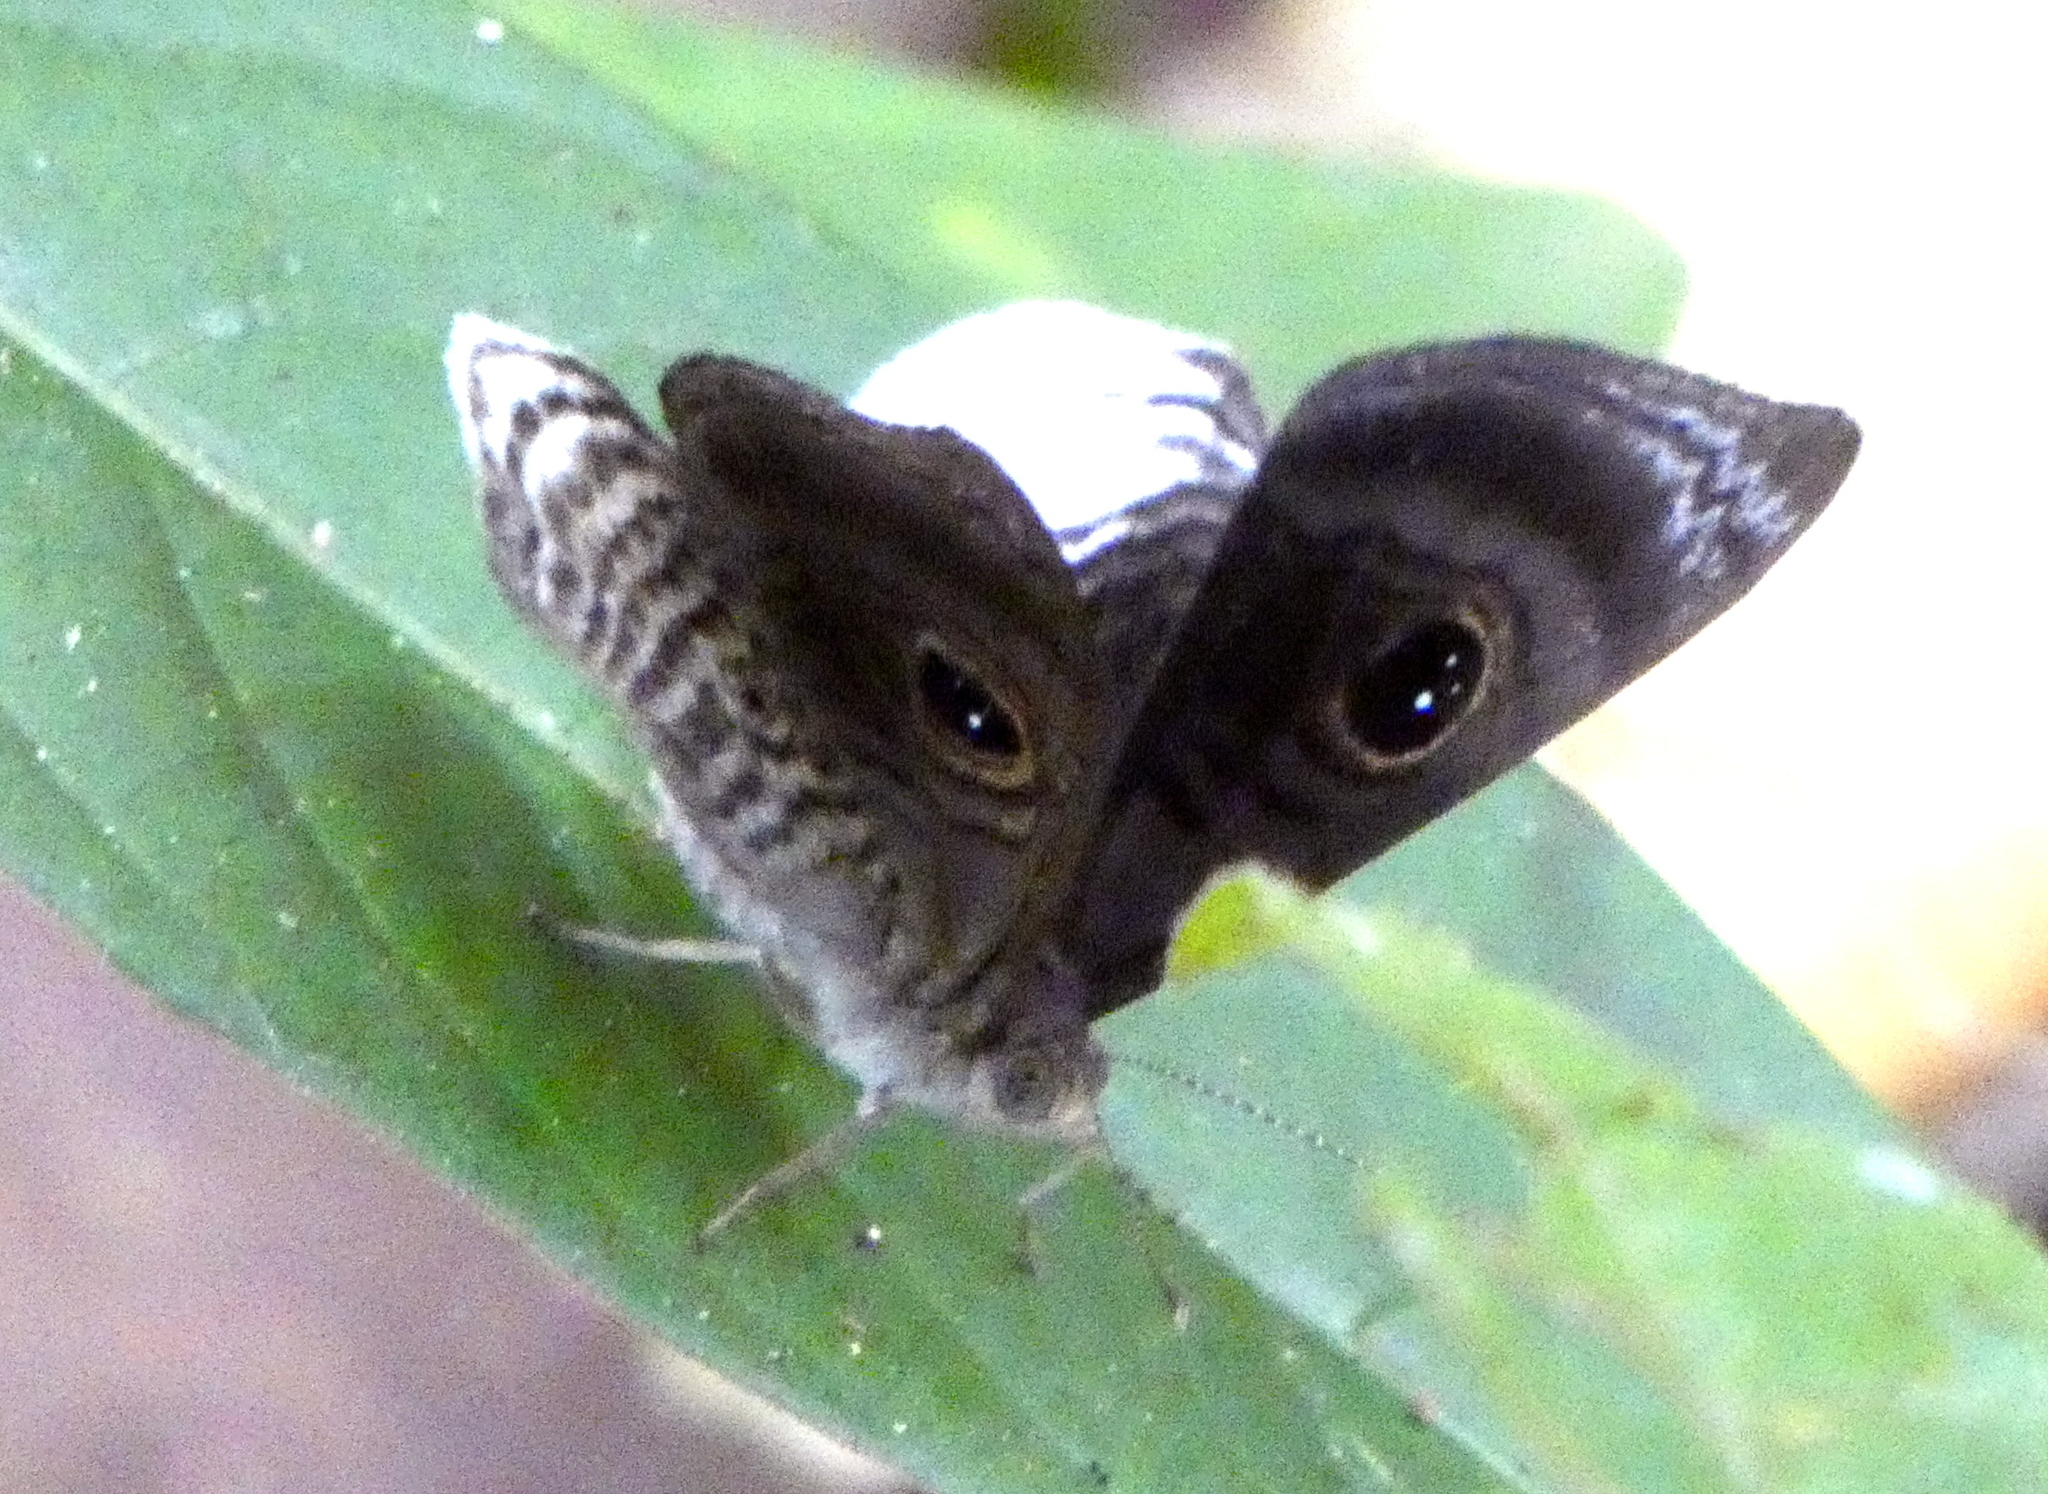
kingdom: Animalia
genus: Mesosemia
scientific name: Mesosemia nyctea
